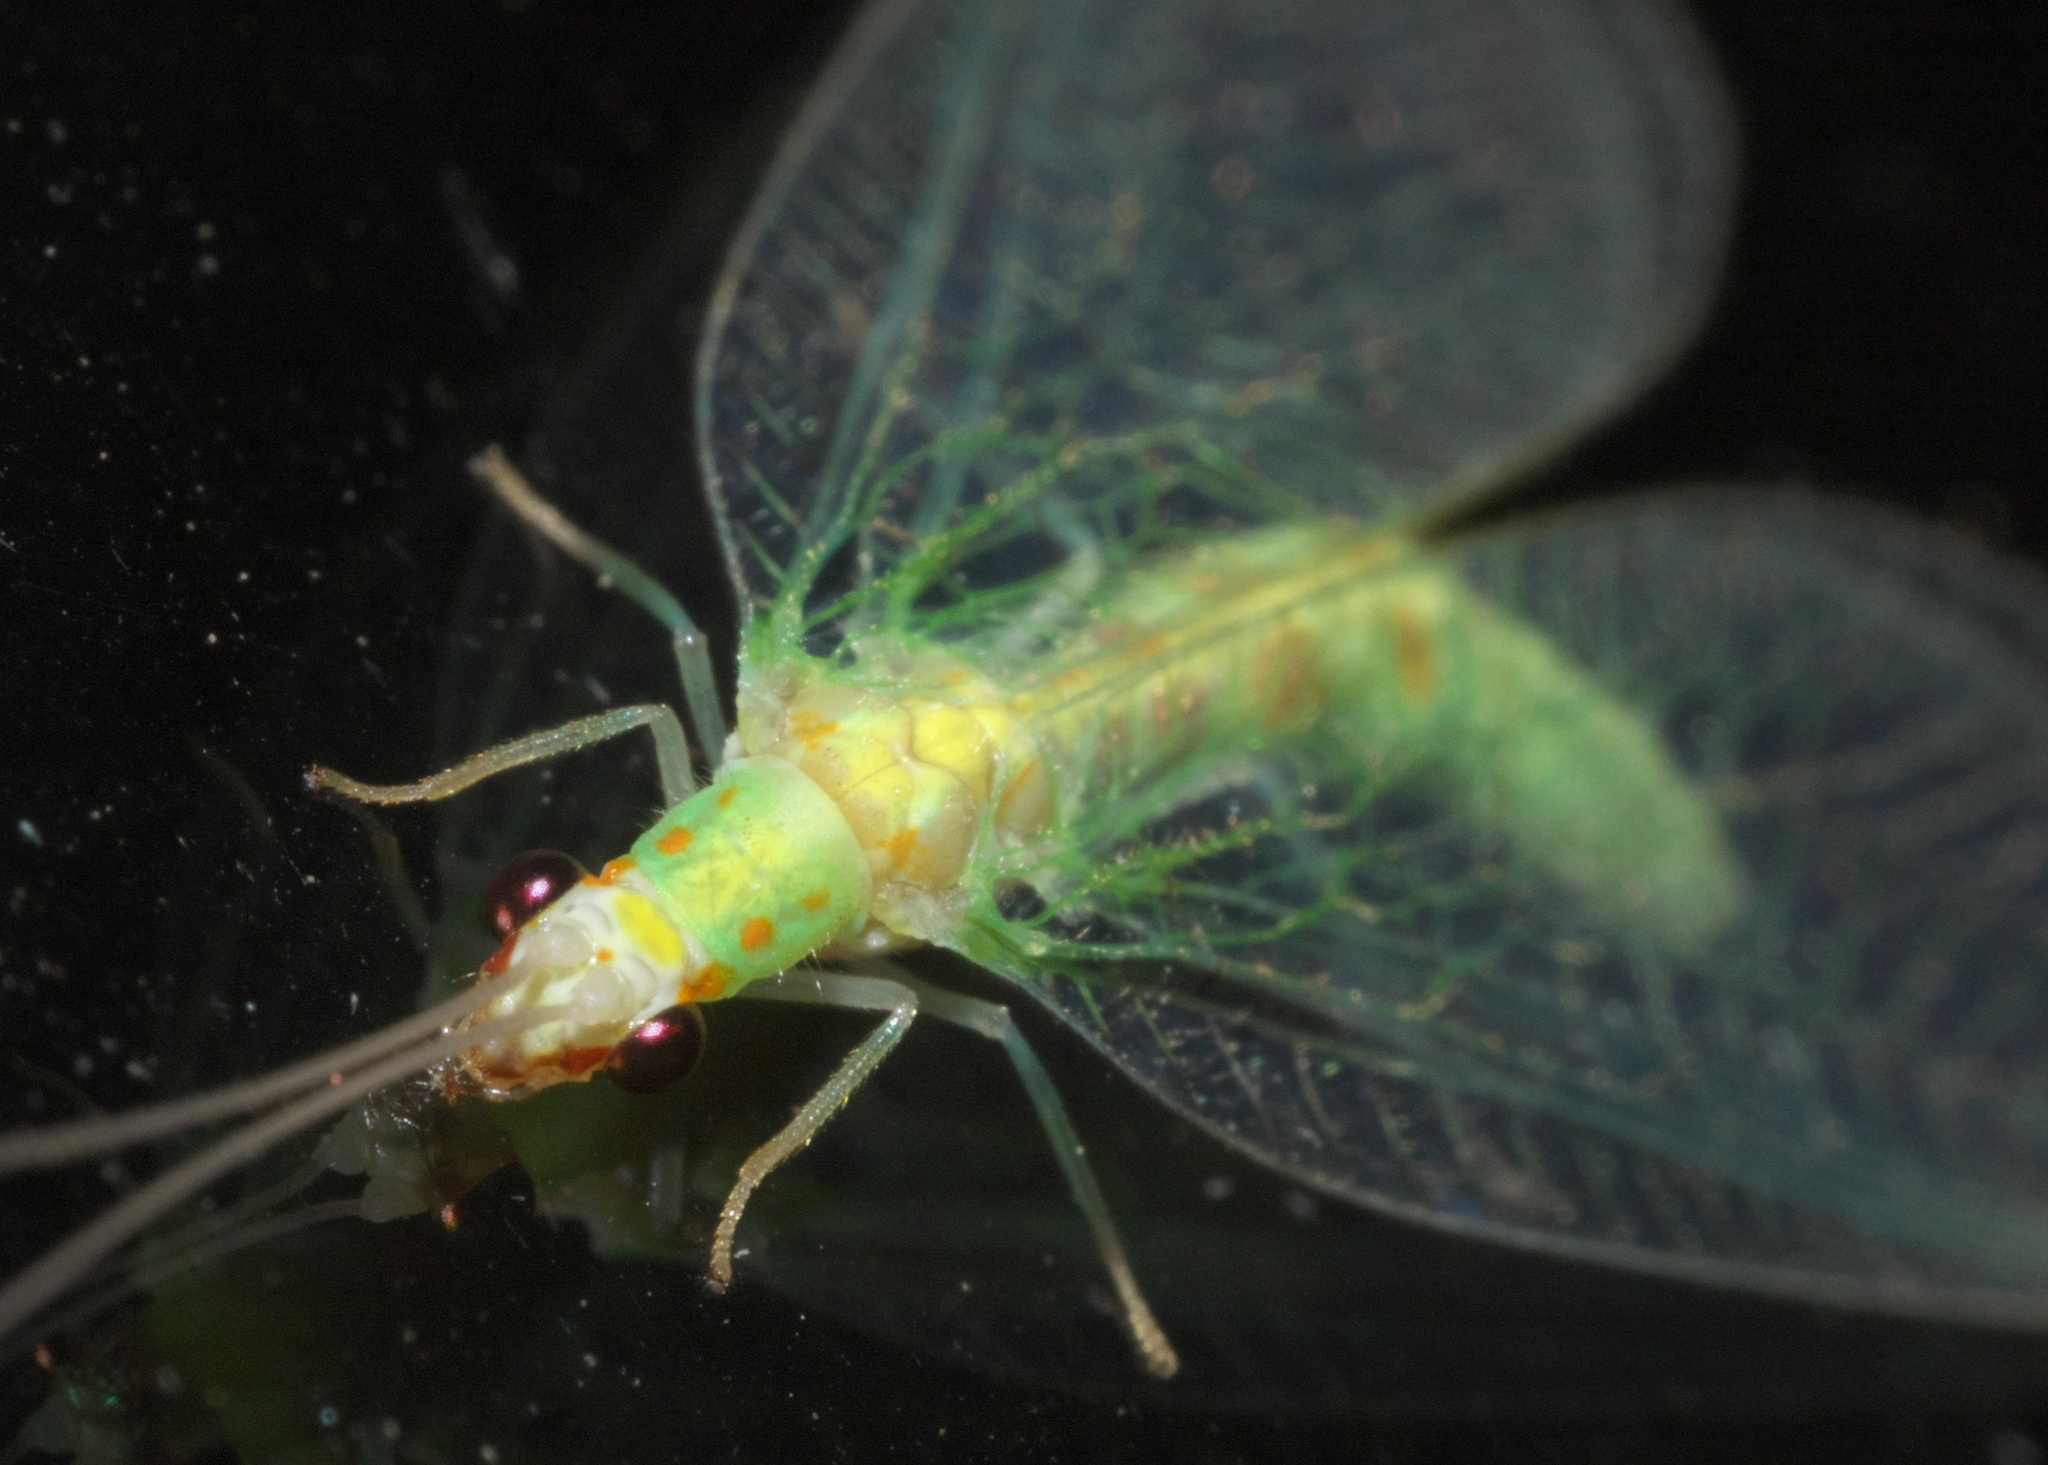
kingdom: Animalia
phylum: Arthropoda
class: Insecta
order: Neuroptera
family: Chrysopidae
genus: Chrysopa
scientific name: Chrysopa quadripunctata
